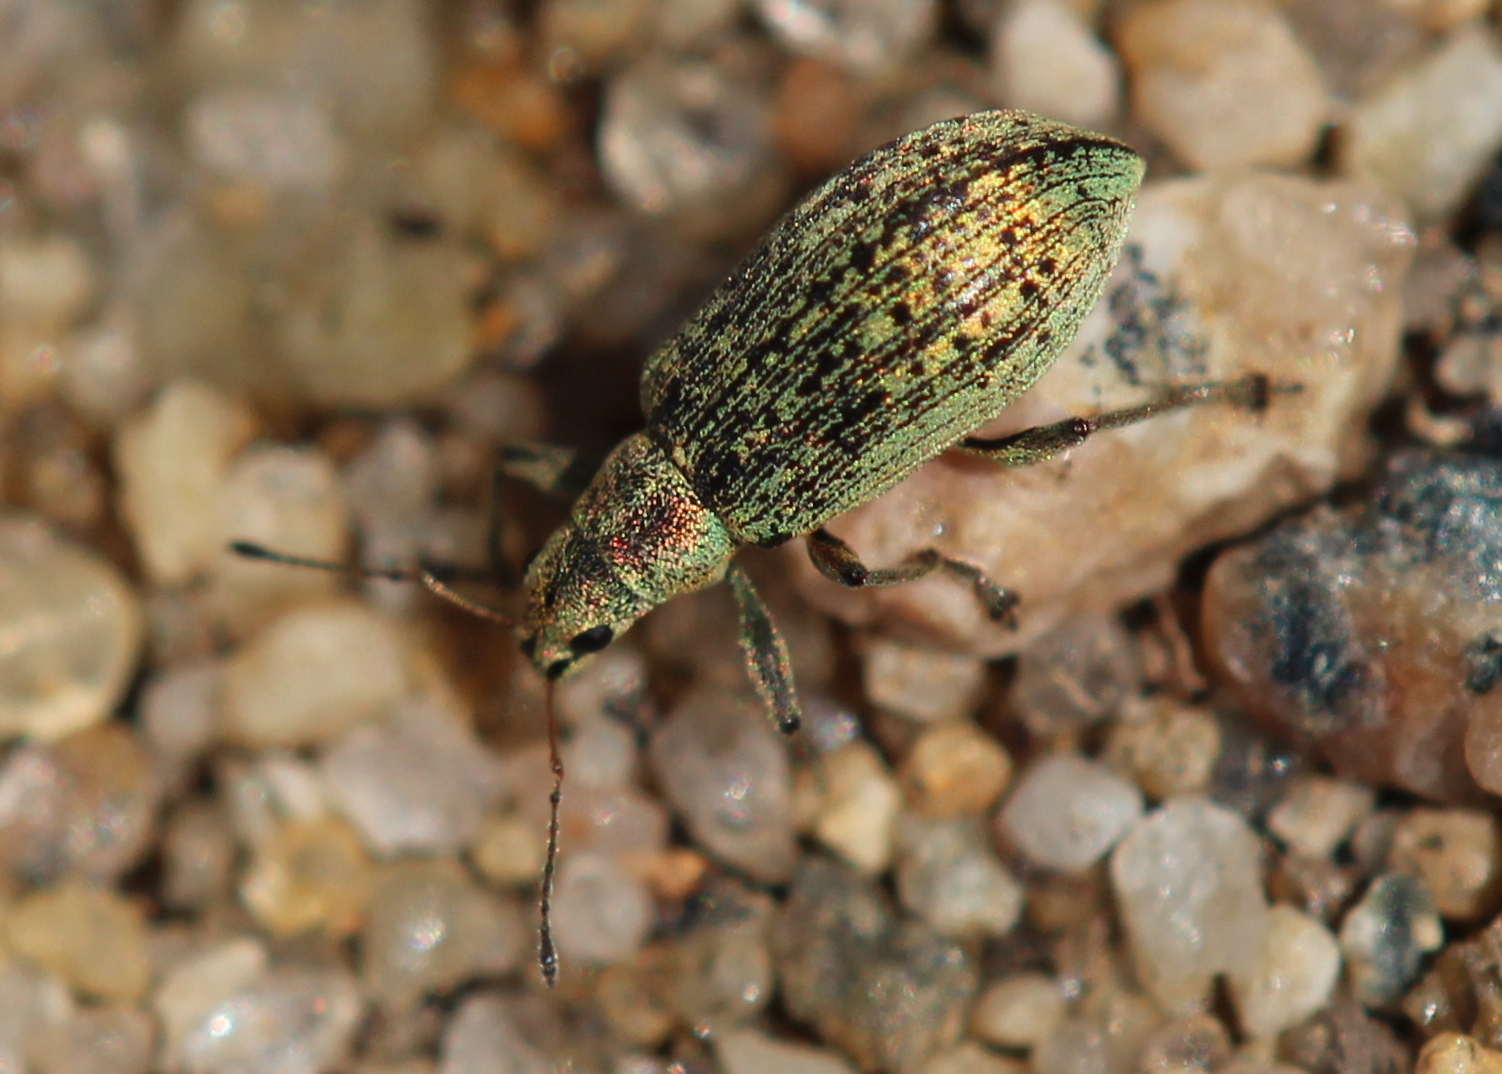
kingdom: Animalia
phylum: Arthropoda
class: Insecta
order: Coleoptera
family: Curculionidae
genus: Polydrusus
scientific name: Polydrusus cervinus
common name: Weevil
